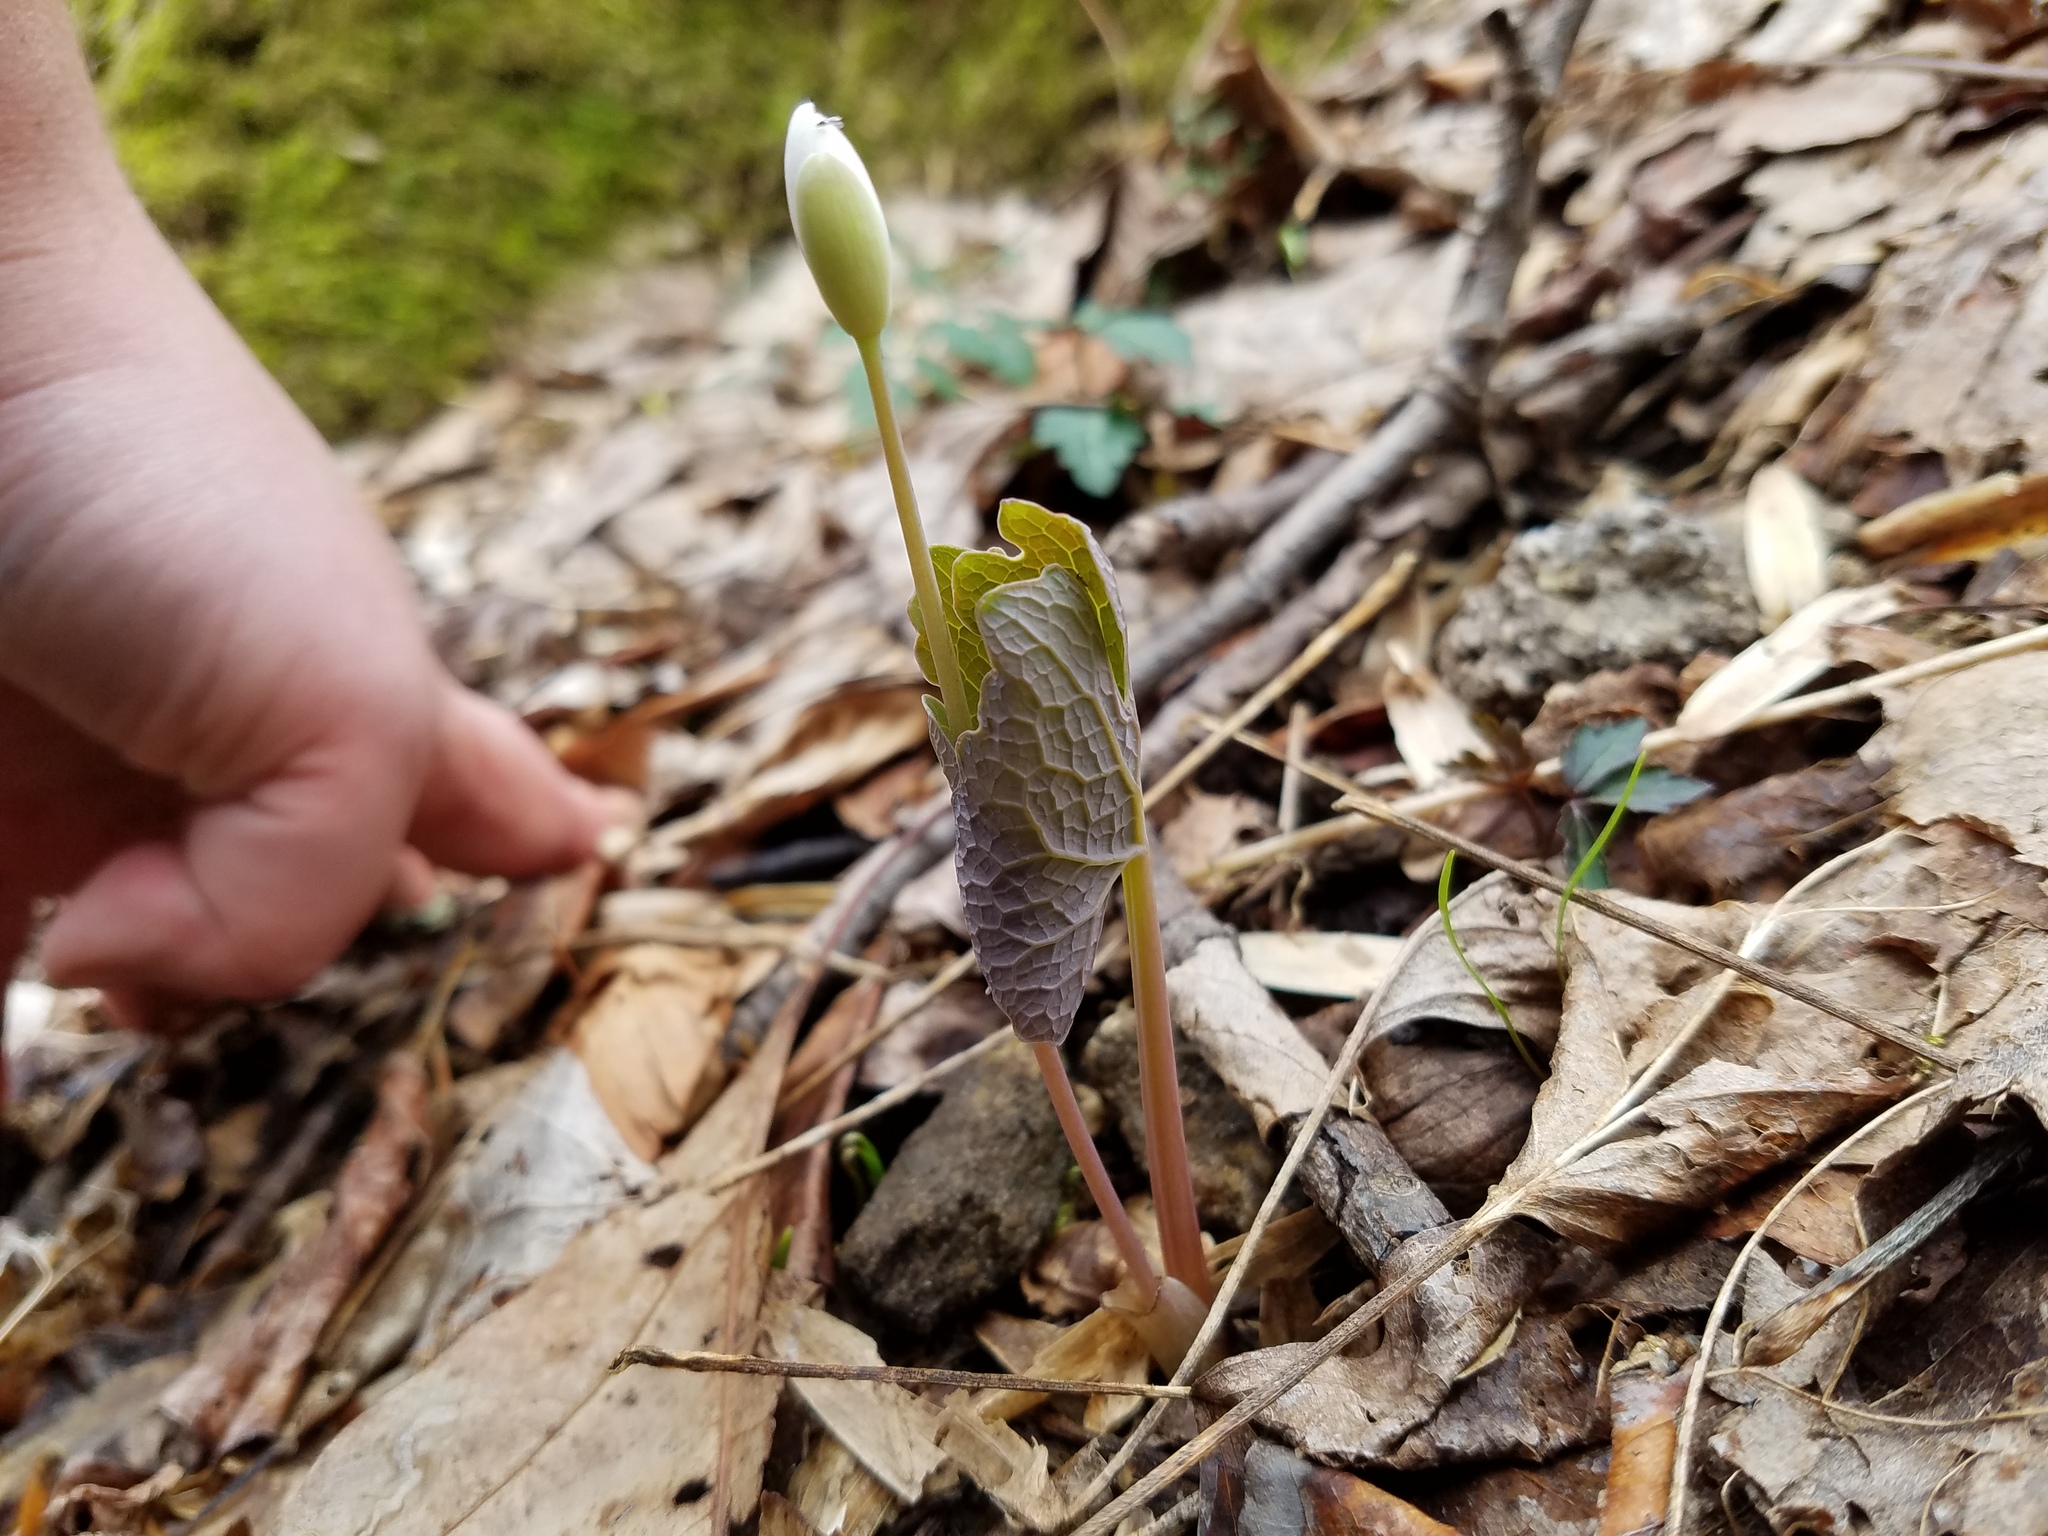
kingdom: Plantae
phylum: Tracheophyta
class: Magnoliopsida
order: Ranunculales
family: Papaveraceae
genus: Sanguinaria
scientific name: Sanguinaria canadensis
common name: Bloodroot
